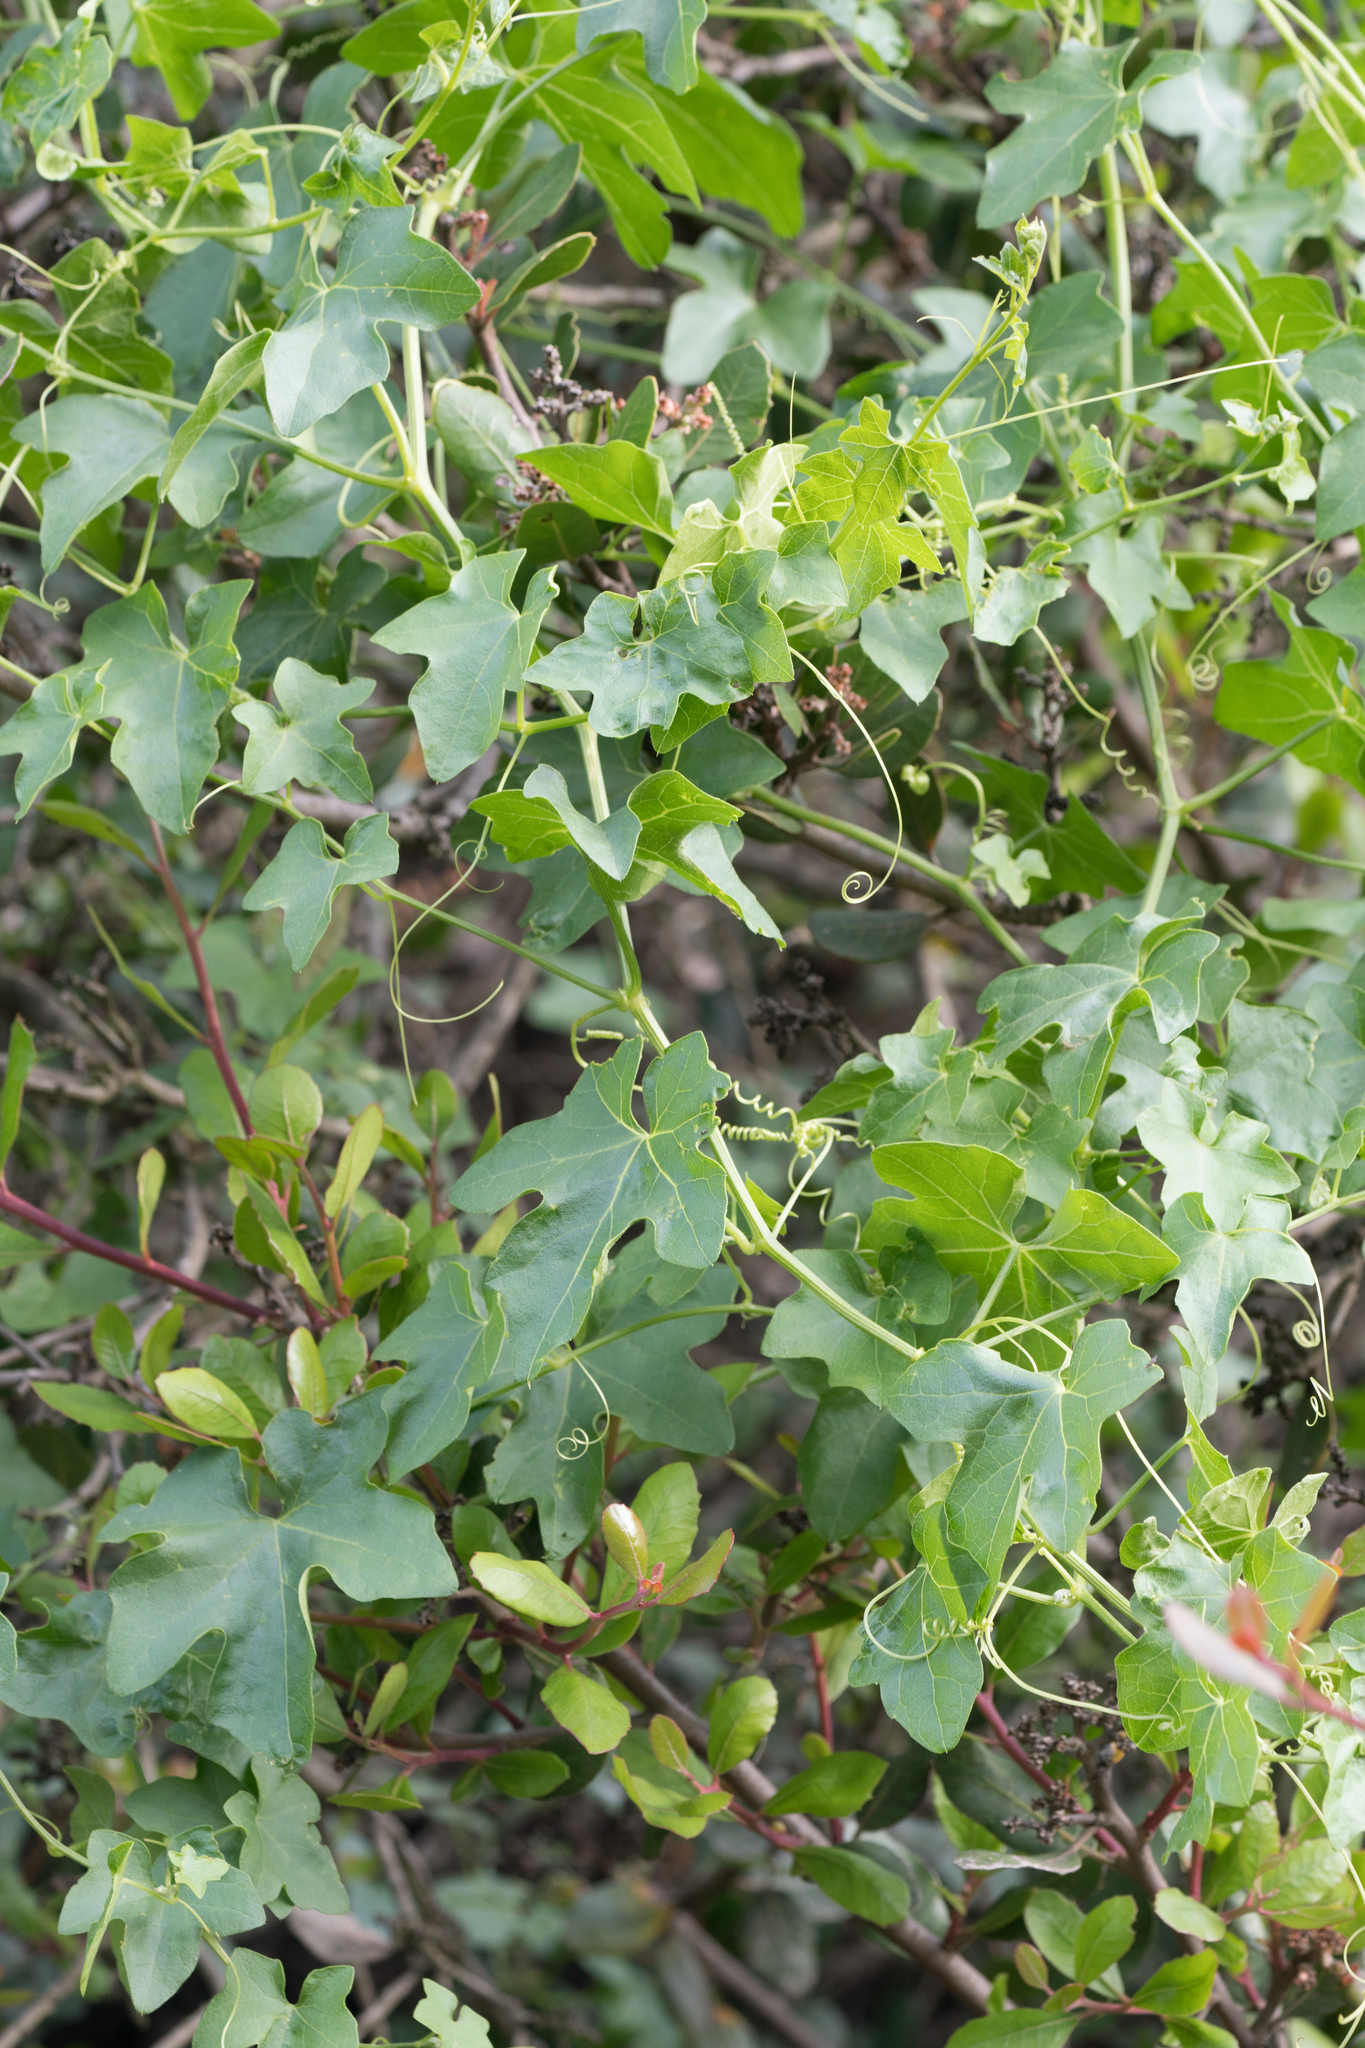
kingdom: Plantae
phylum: Tracheophyta
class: Magnoliopsida
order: Cucurbitales
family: Cucurbitaceae
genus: Marah
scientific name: Marah macrocarpa
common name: Cucamonga manroot
